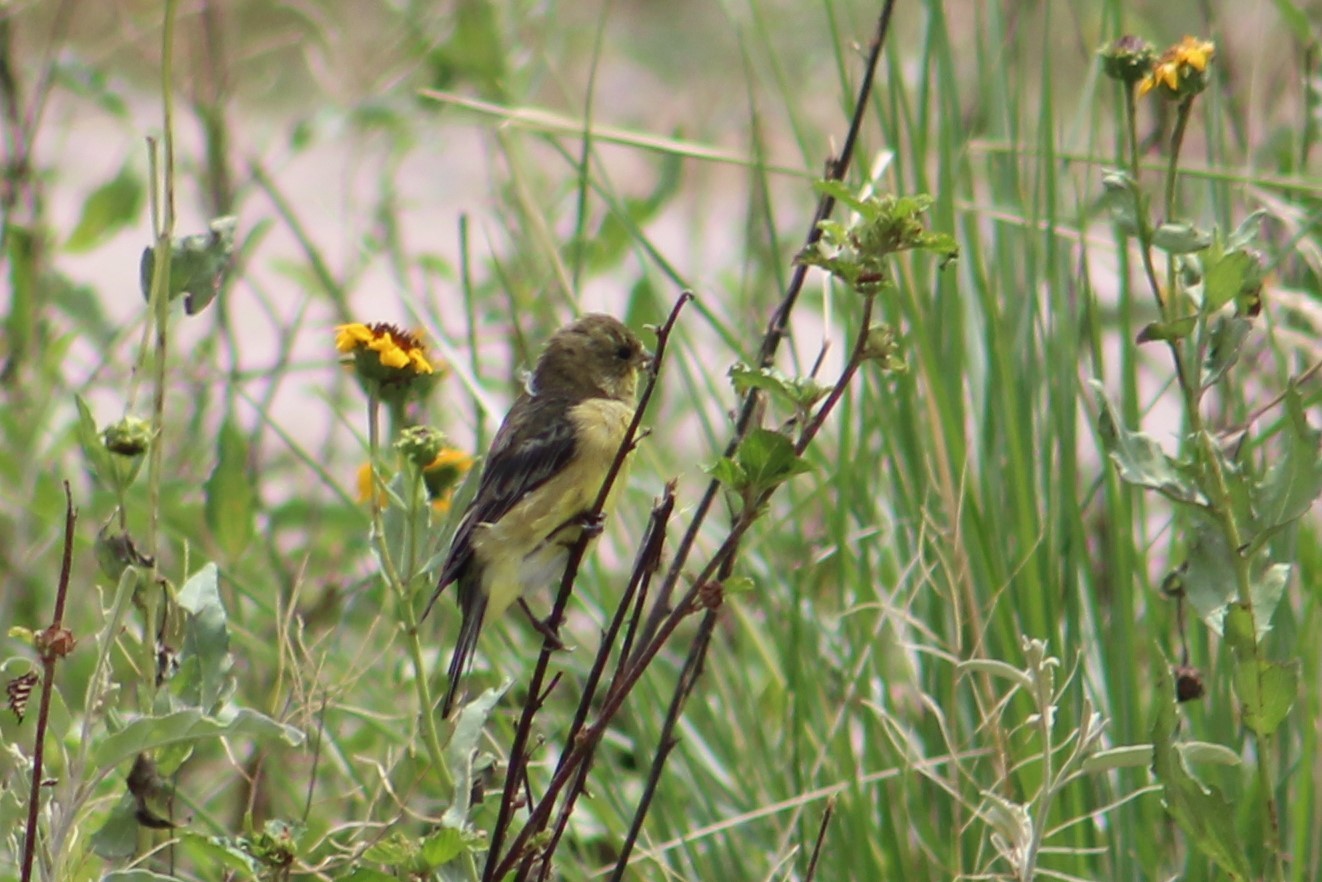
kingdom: Animalia
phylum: Chordata
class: Aves
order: Passeriformes
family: Fringillidae
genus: Spinus
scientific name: Spinus psaltria
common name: Lesser goldfinch
